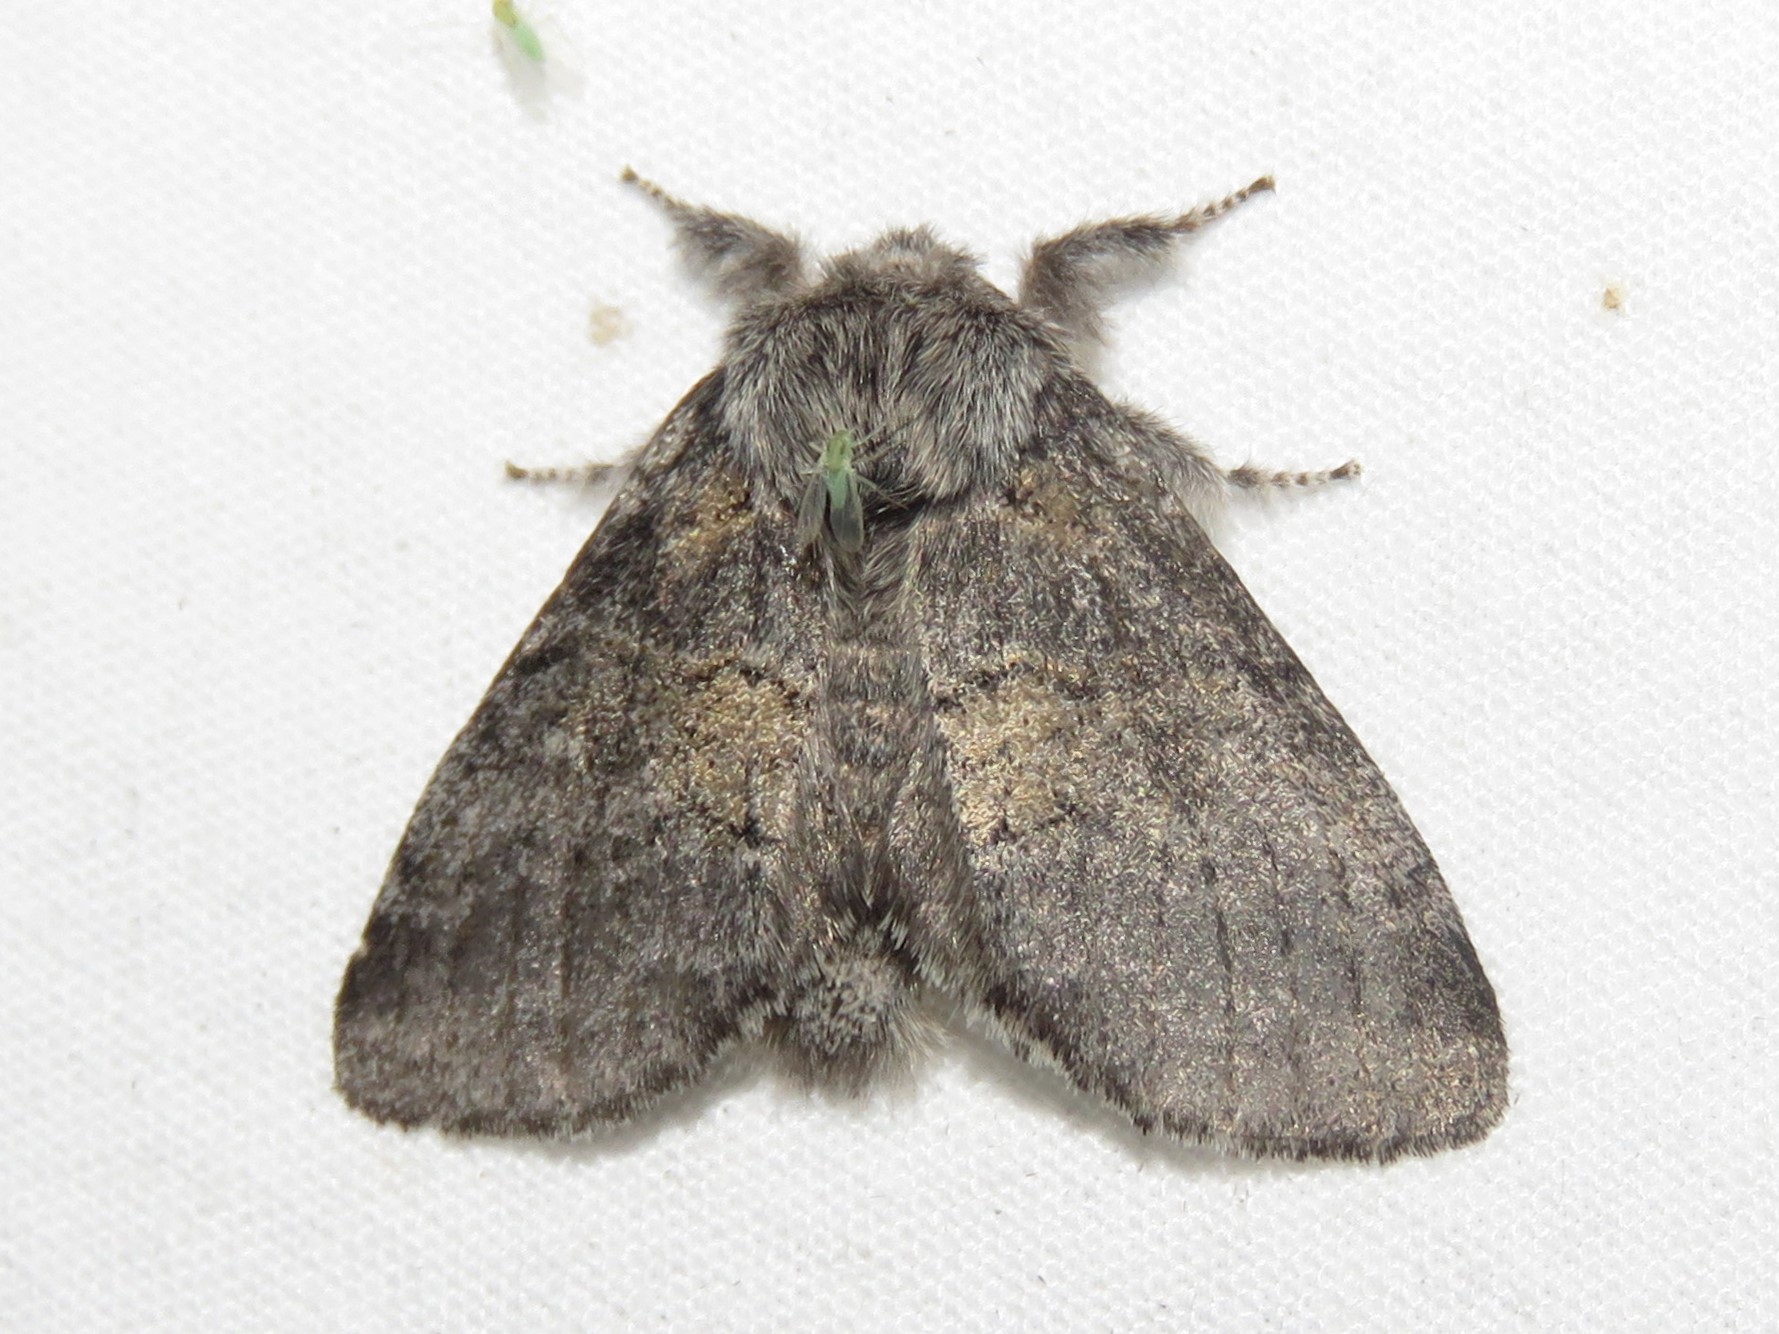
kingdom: Animalia
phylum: Arthropoda
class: Insecta
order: Lepidoptera
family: Notodontidae
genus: Gluphisia
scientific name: Gluphisia septentrionis
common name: Common gluphisia
